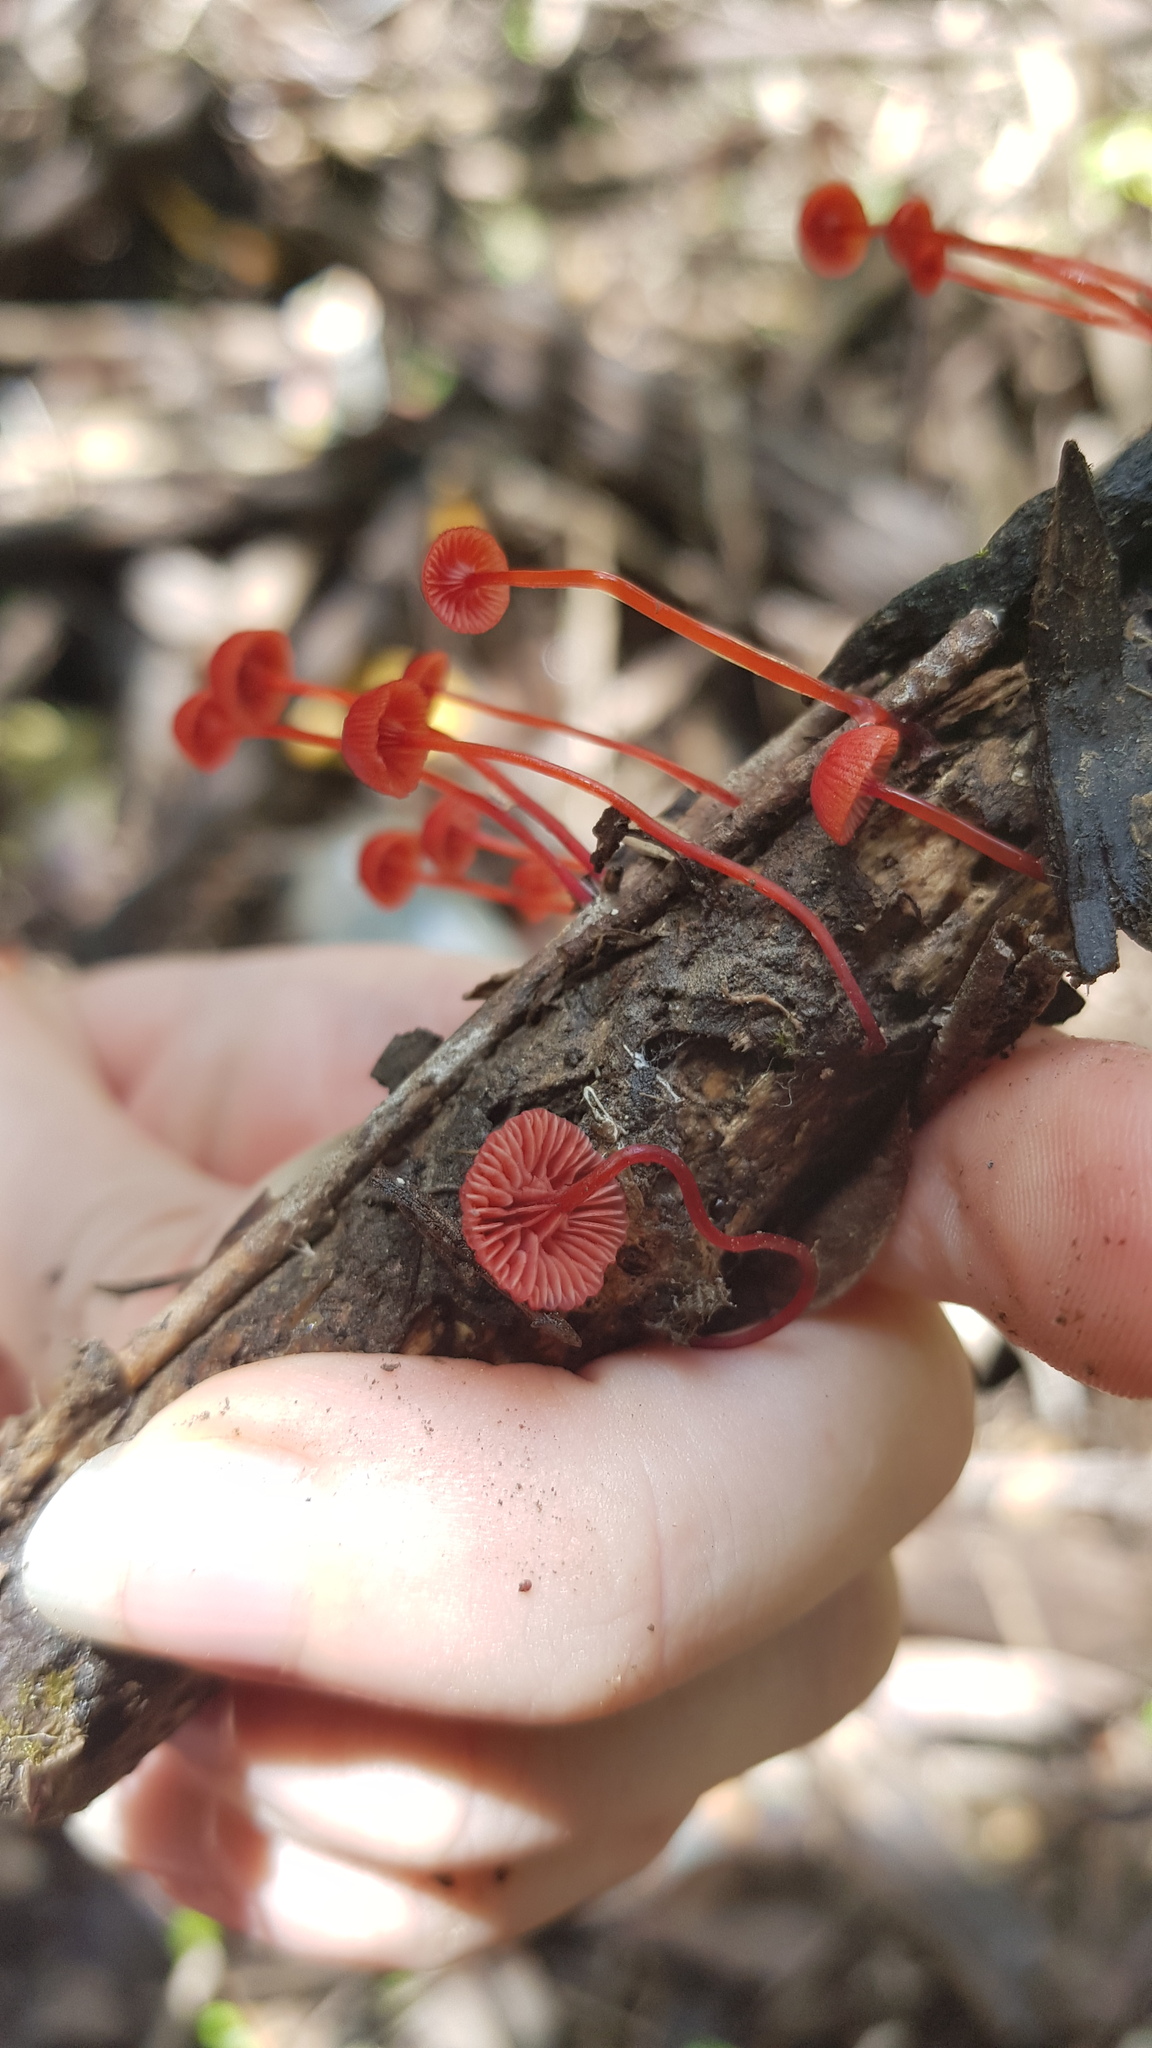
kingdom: Fungi
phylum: Basidiomycota
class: Agaricomycetes
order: Agaricales
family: Mycenaceae
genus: Cruentomycena
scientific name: Cruentomycena viscidocruenta
